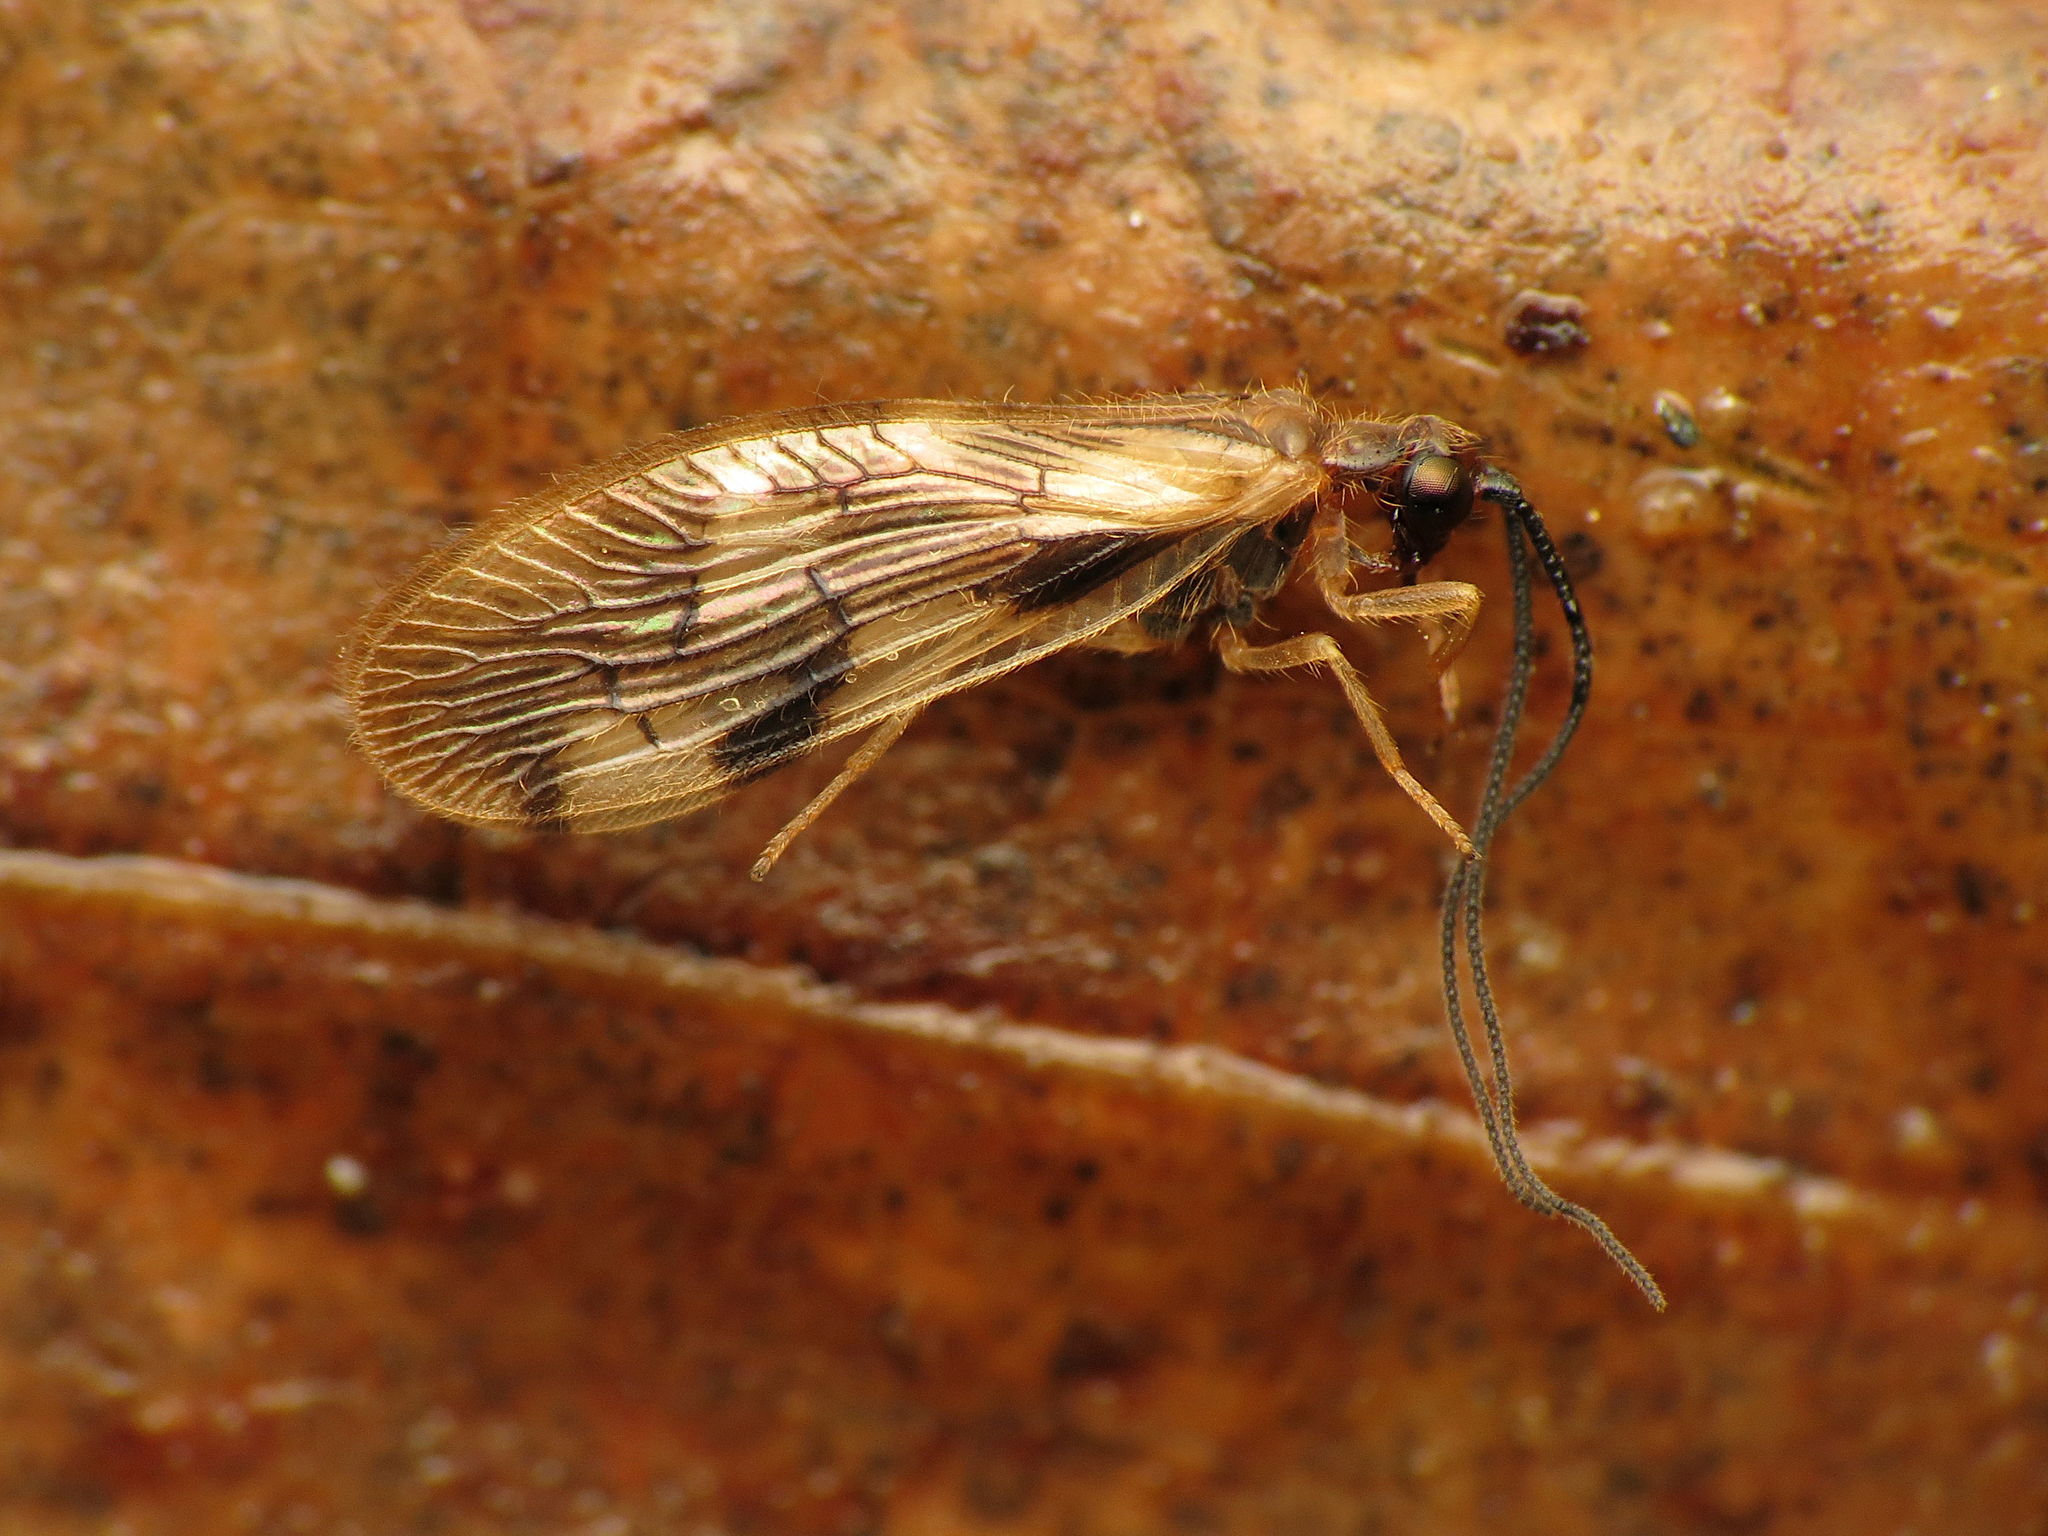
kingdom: Animalia
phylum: Arthropoda
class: Insecta
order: Neuroptera
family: Sisyridae
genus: Climacia
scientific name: Climacia areolaris
